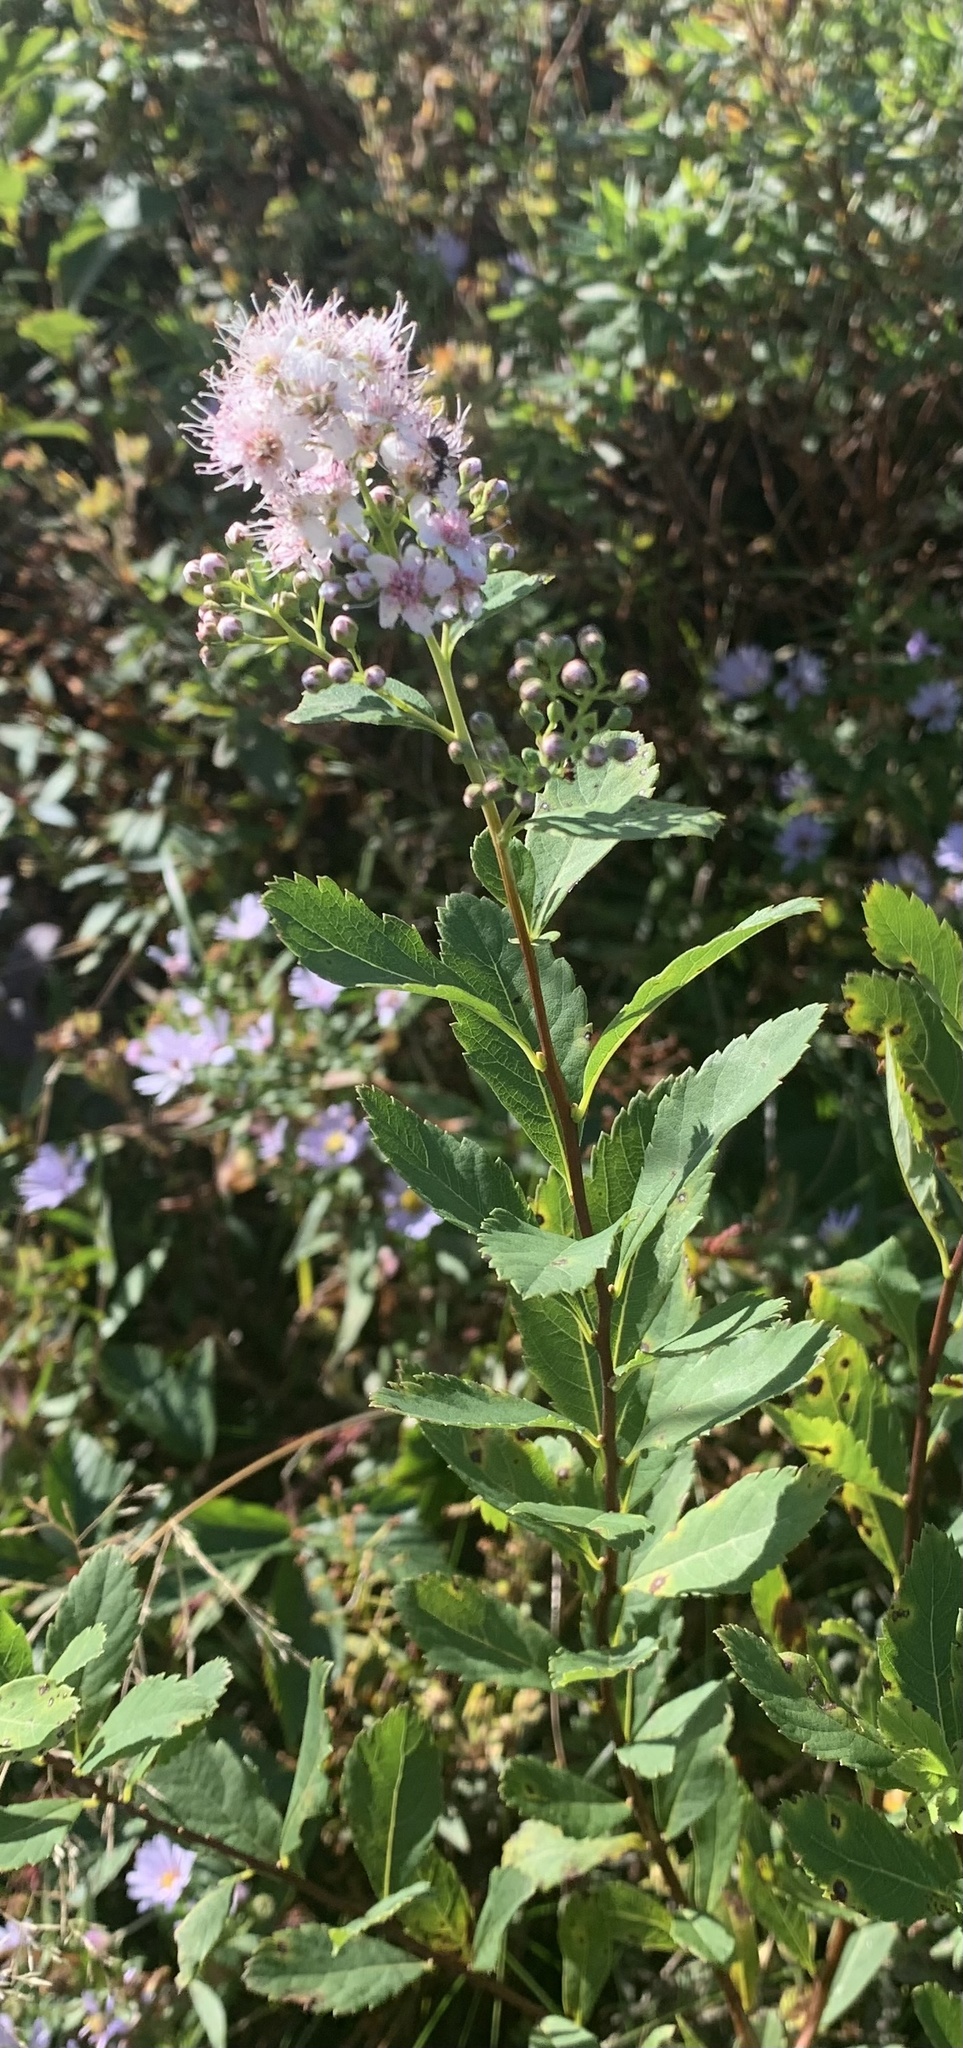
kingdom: Plantae
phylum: Tracheophyta
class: Magnoliopsida
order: Rosales
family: Rosaceae
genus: Spiraea
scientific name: Spiraea alba
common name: Pale bridewort
